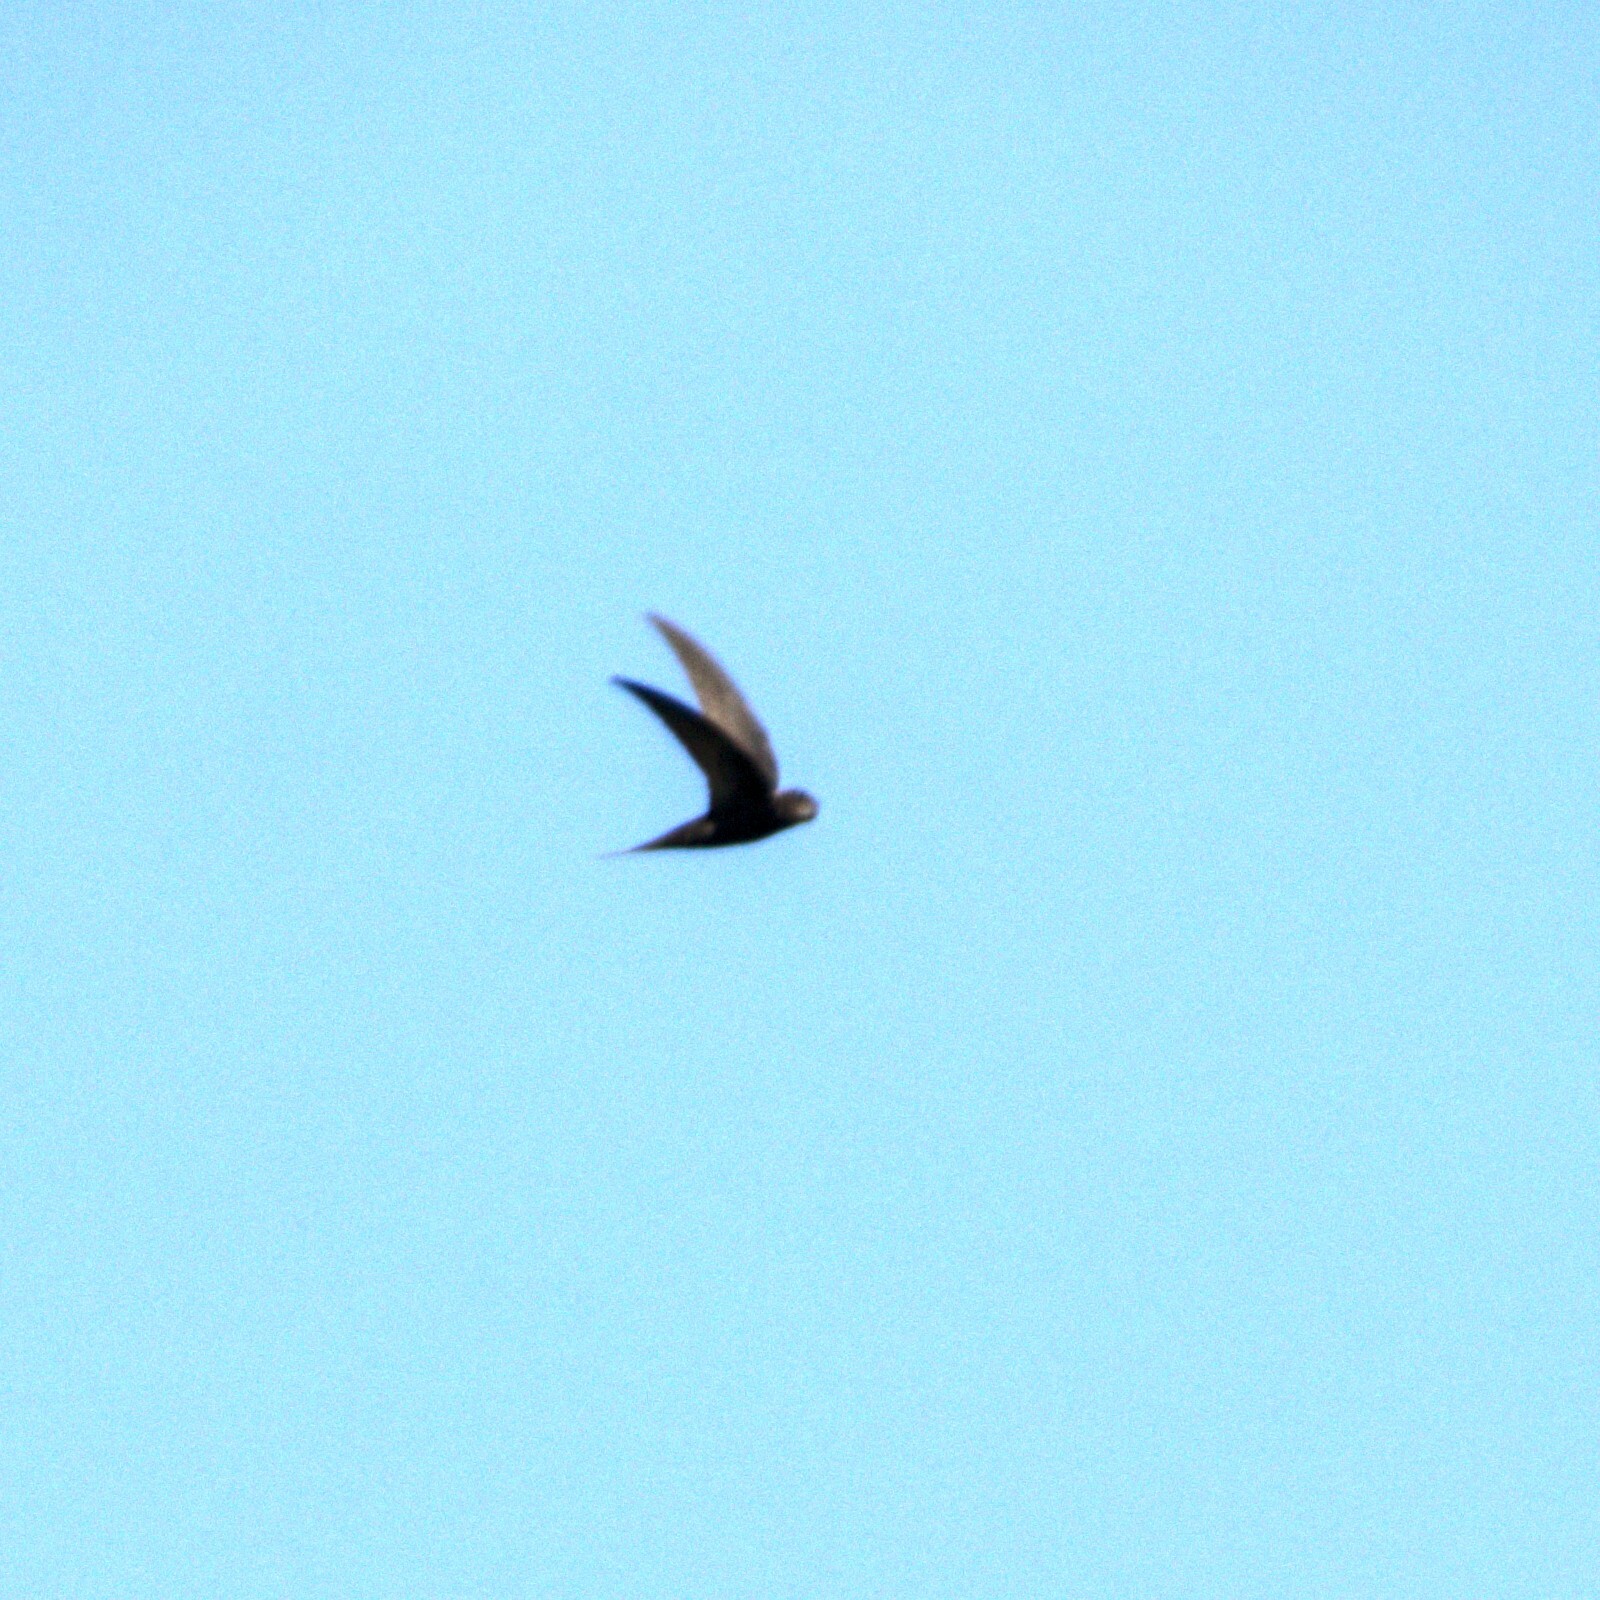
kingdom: Animalia
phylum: Chordata
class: Aves
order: Apodiformes
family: Apodidae
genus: Apus
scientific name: Apus apus
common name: Common swift
